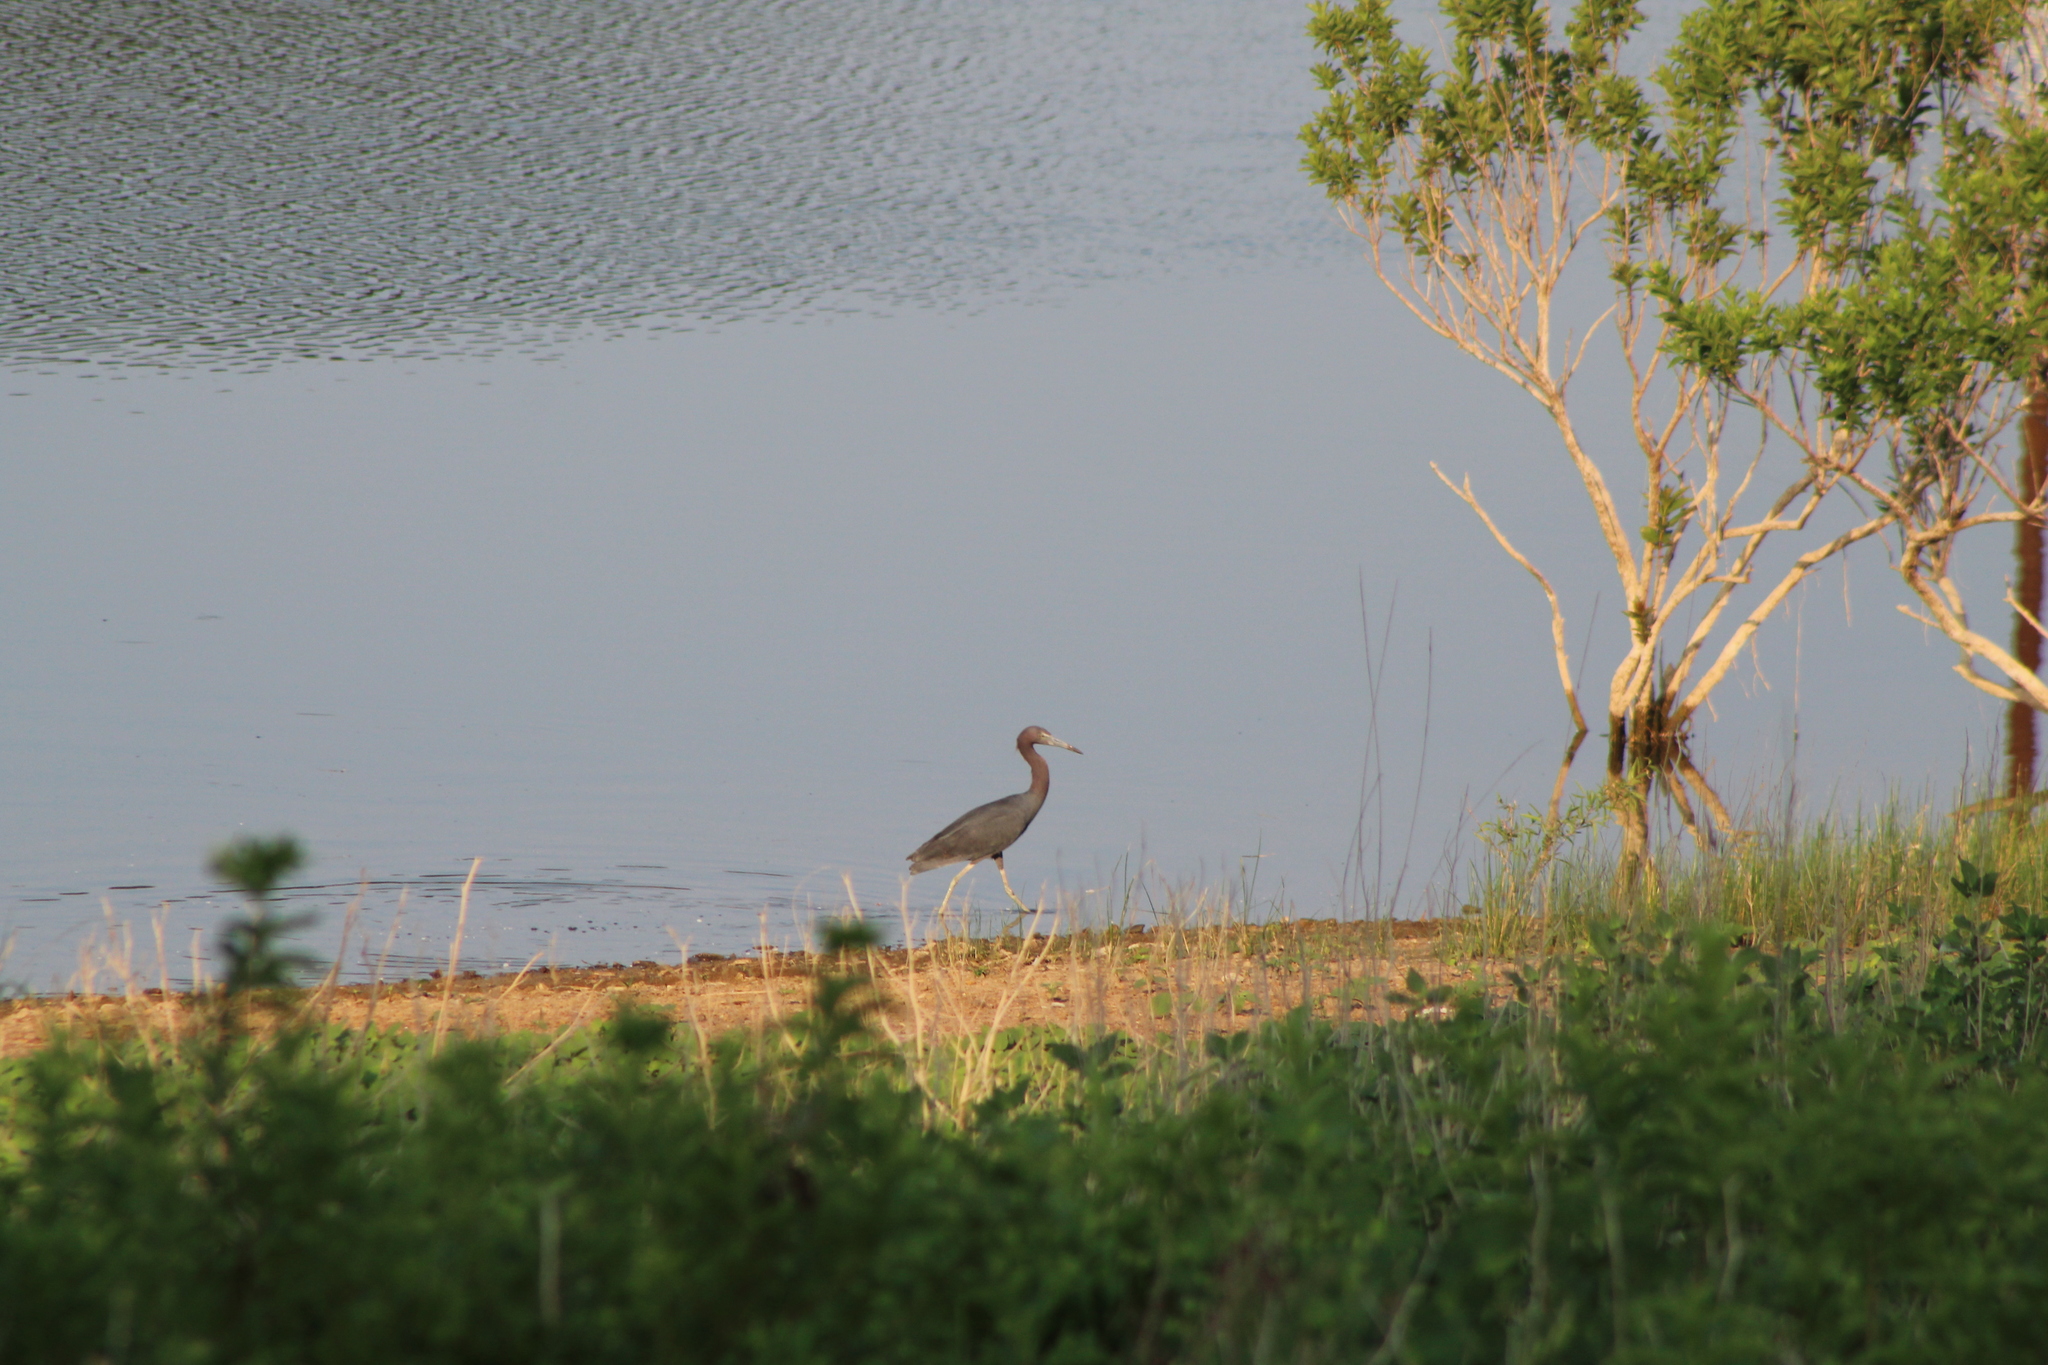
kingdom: Animalia
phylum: Chordata
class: Aves
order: Pelecaniformes
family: Ardeidae
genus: Egretta
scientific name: Egretta caerulea
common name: Little blue heron
